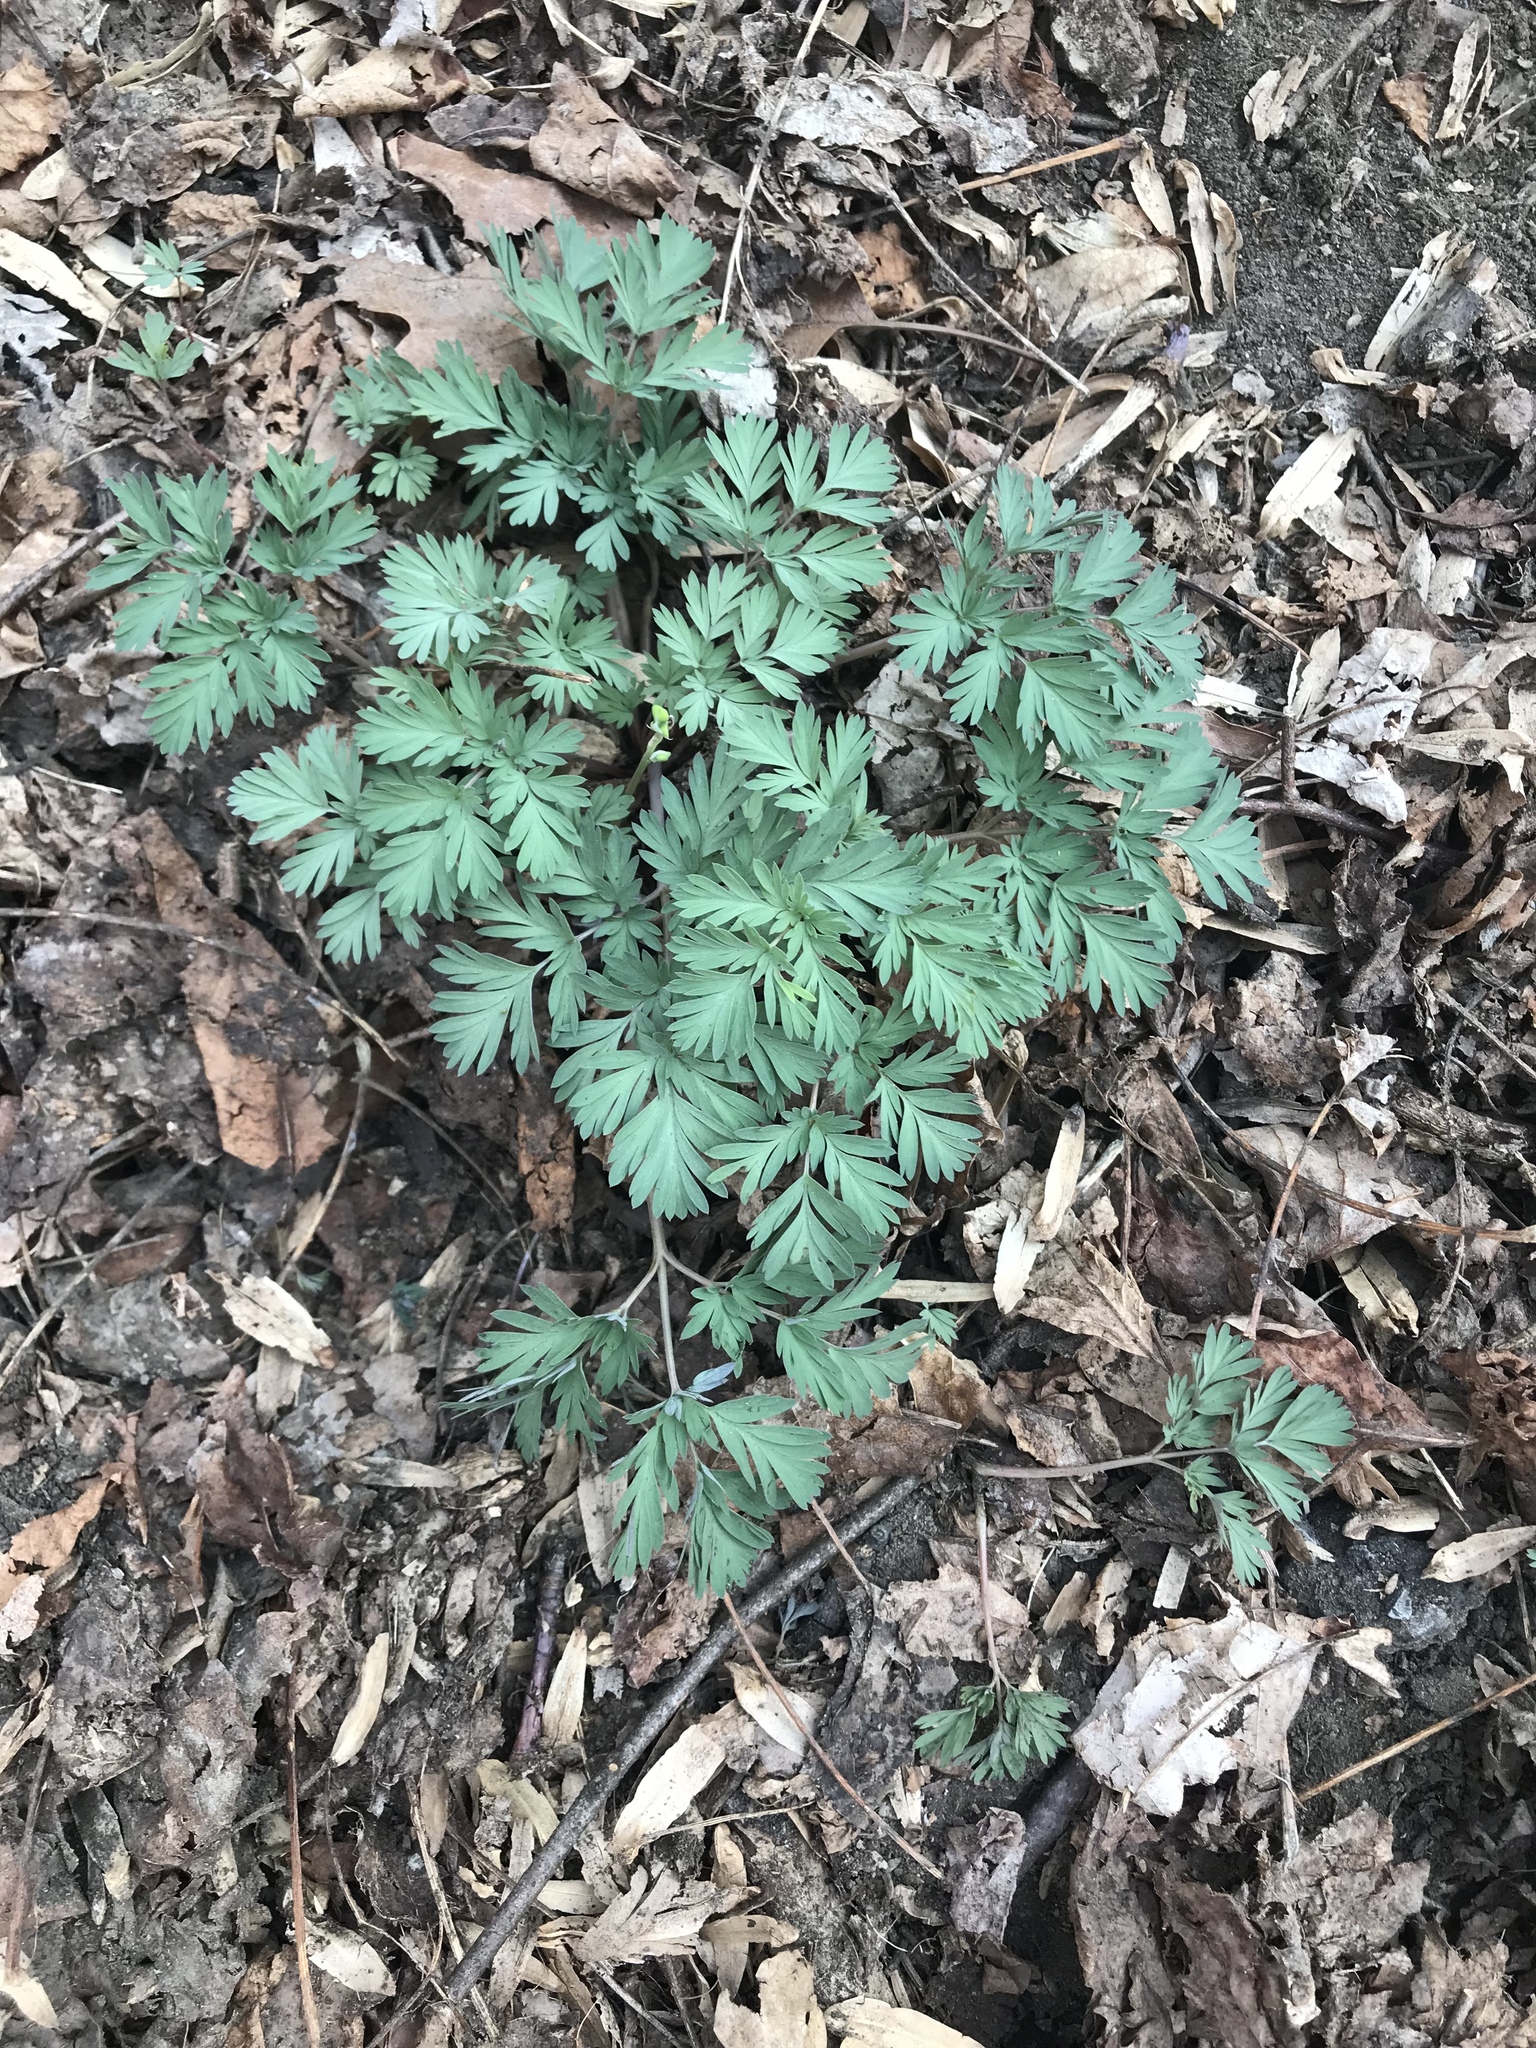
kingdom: Plantae
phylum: Tracheophyta
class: Magnoliopsida
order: Ranunculales
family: Papaveraceae
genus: Dicentra
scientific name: Dicentra cucullaria
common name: Dutchman's breeches
